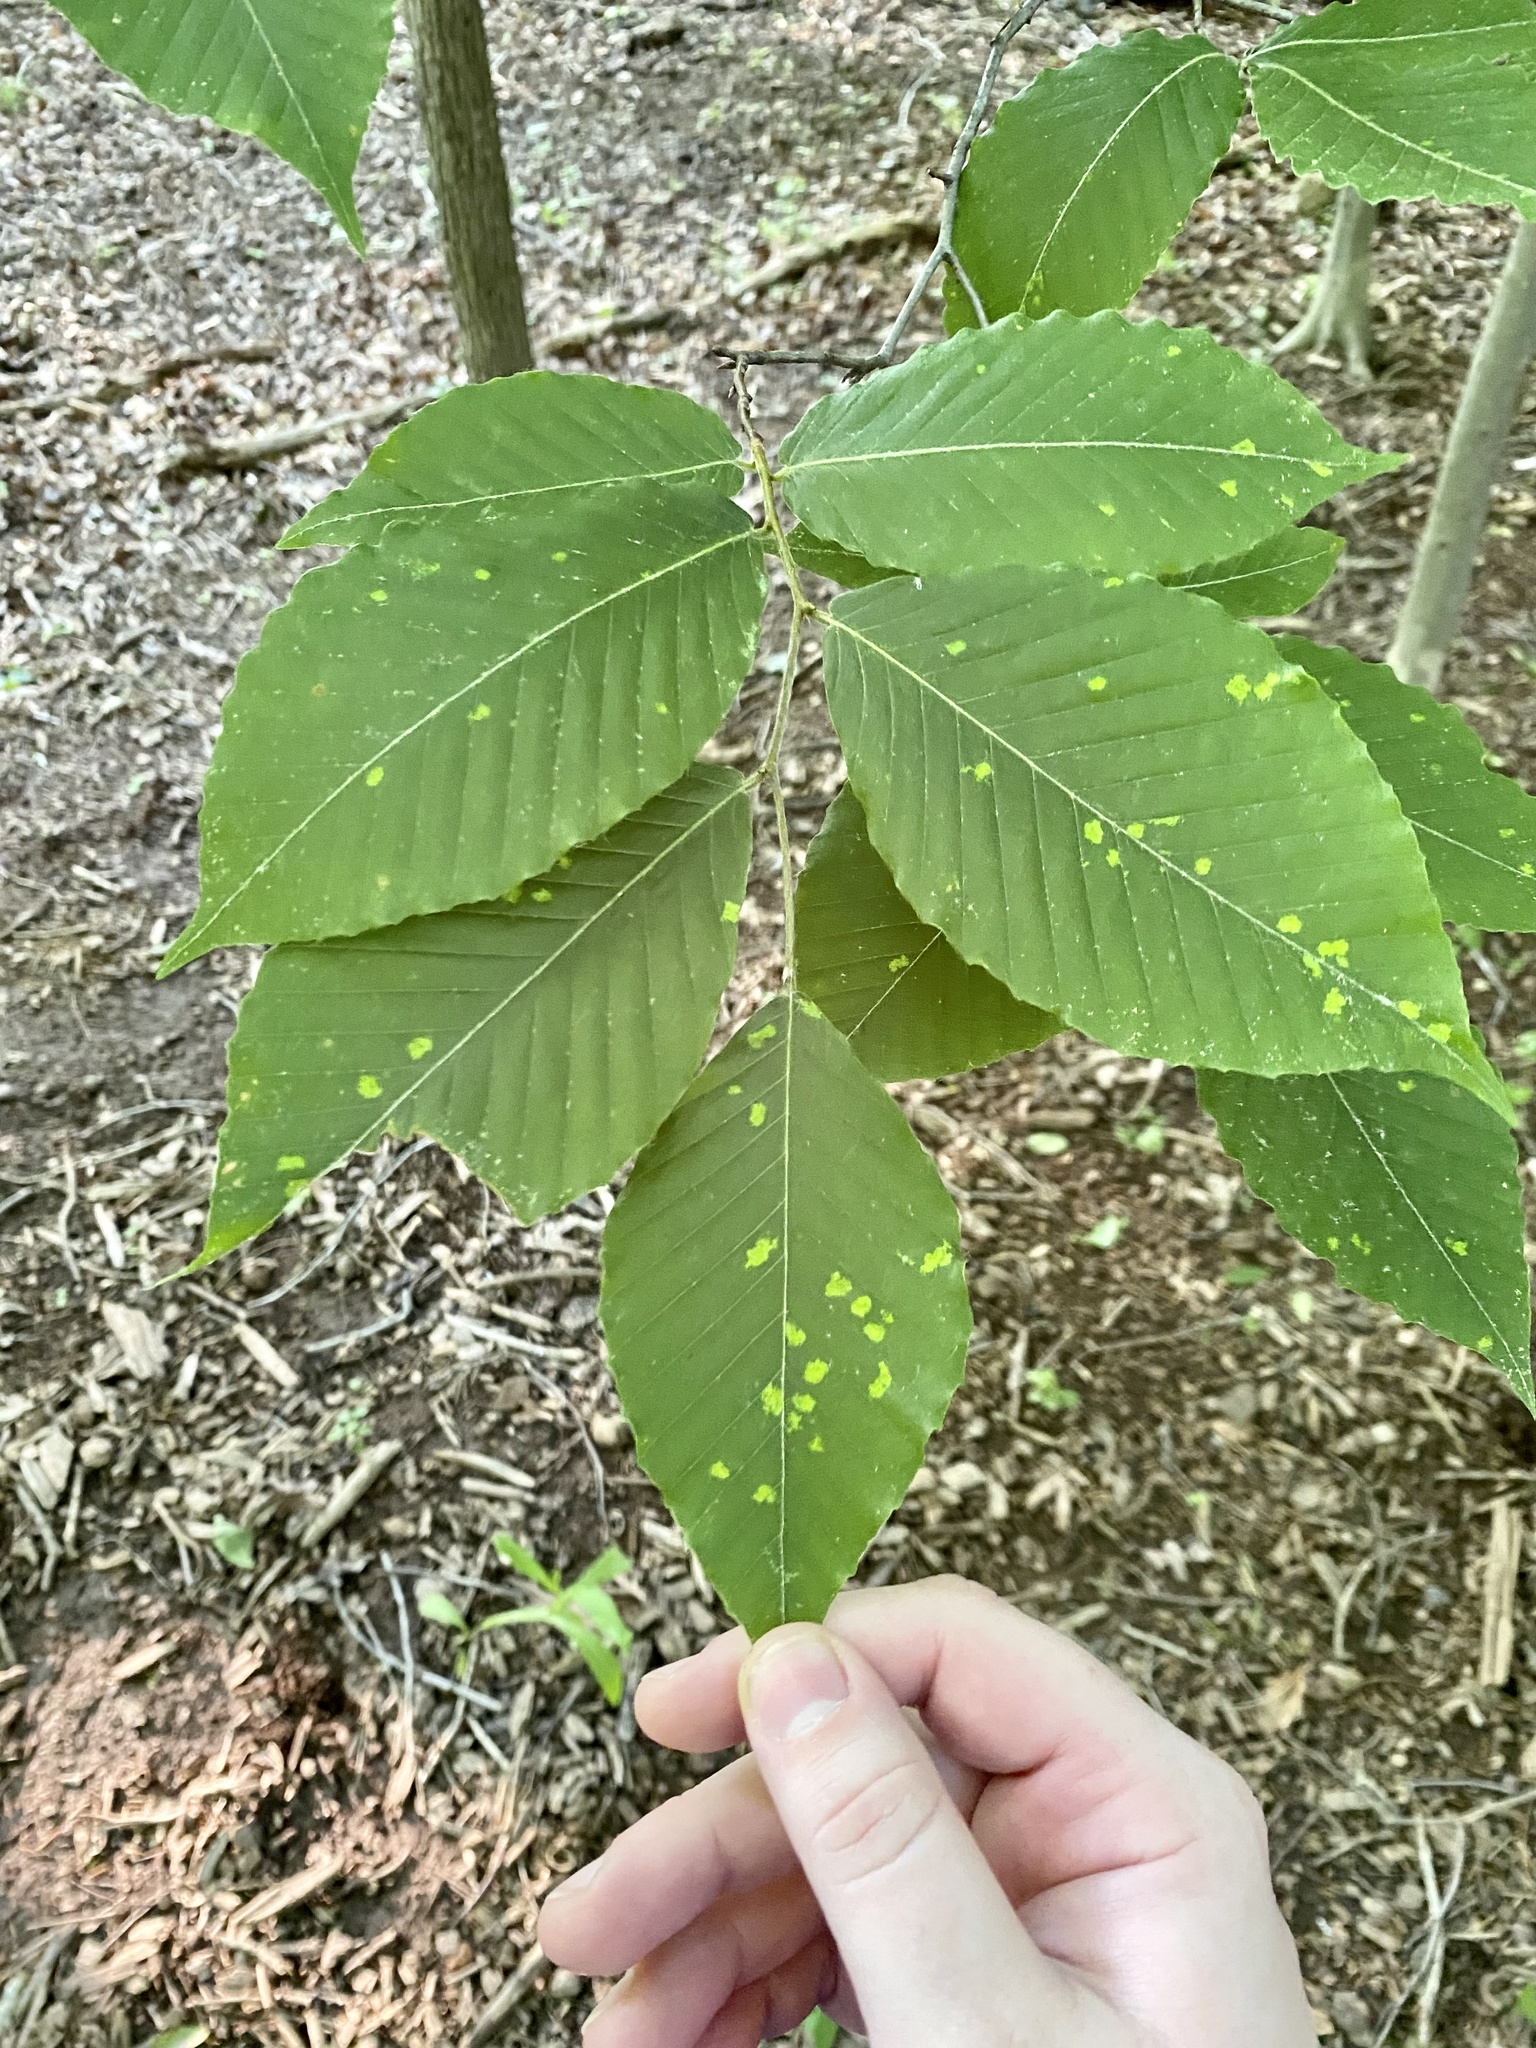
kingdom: Animalia
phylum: Arthropoda
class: Arachnida
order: Trombidiformes
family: Eriophyidae
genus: Acalitus
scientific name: Acalitus
